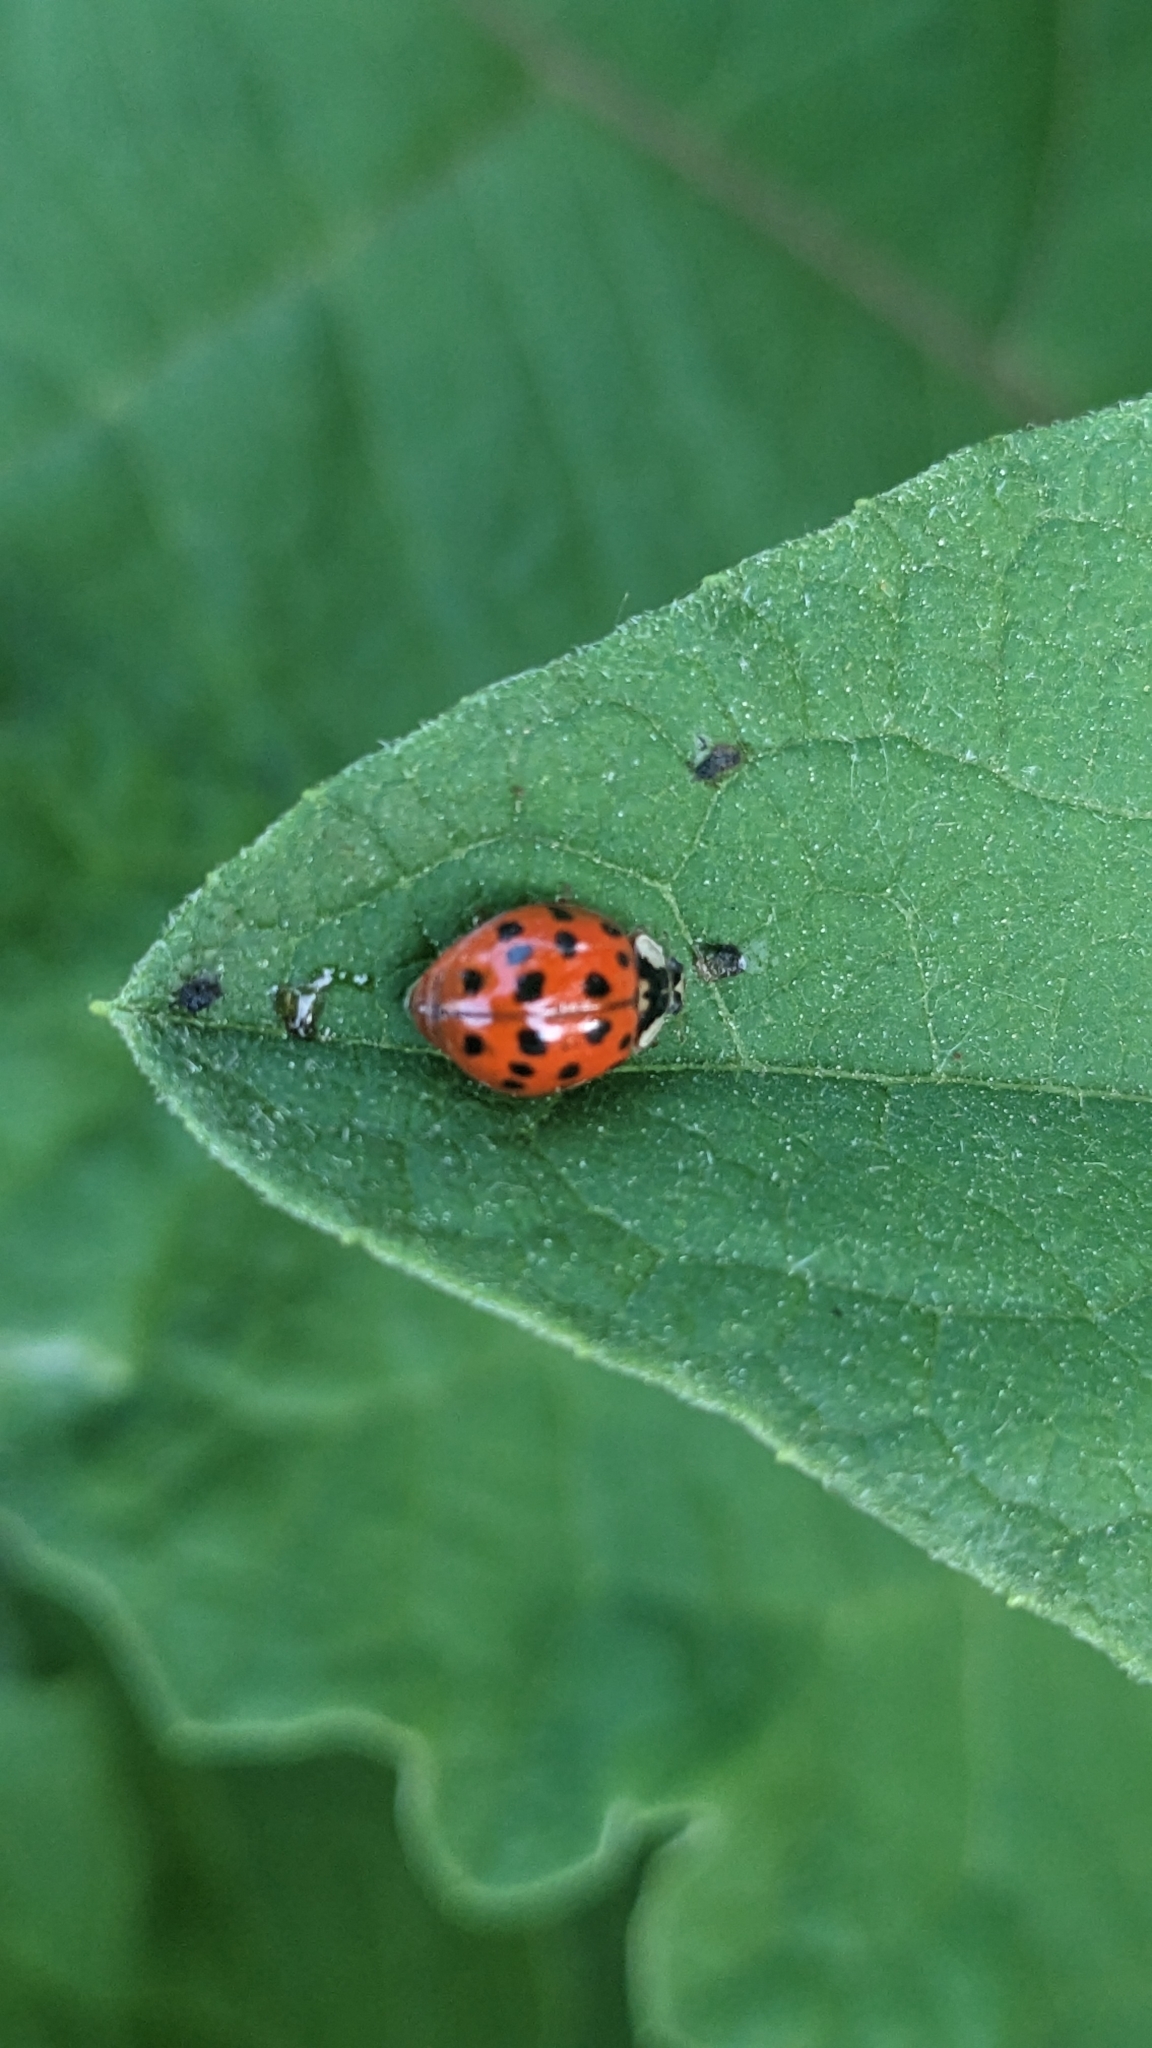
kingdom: Animalia
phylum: Arthropoda
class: Insecta
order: Coleoptera
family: Coccinellidae
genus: Harmonia
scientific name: Harmonia axyridis
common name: Harlequin ladybird
